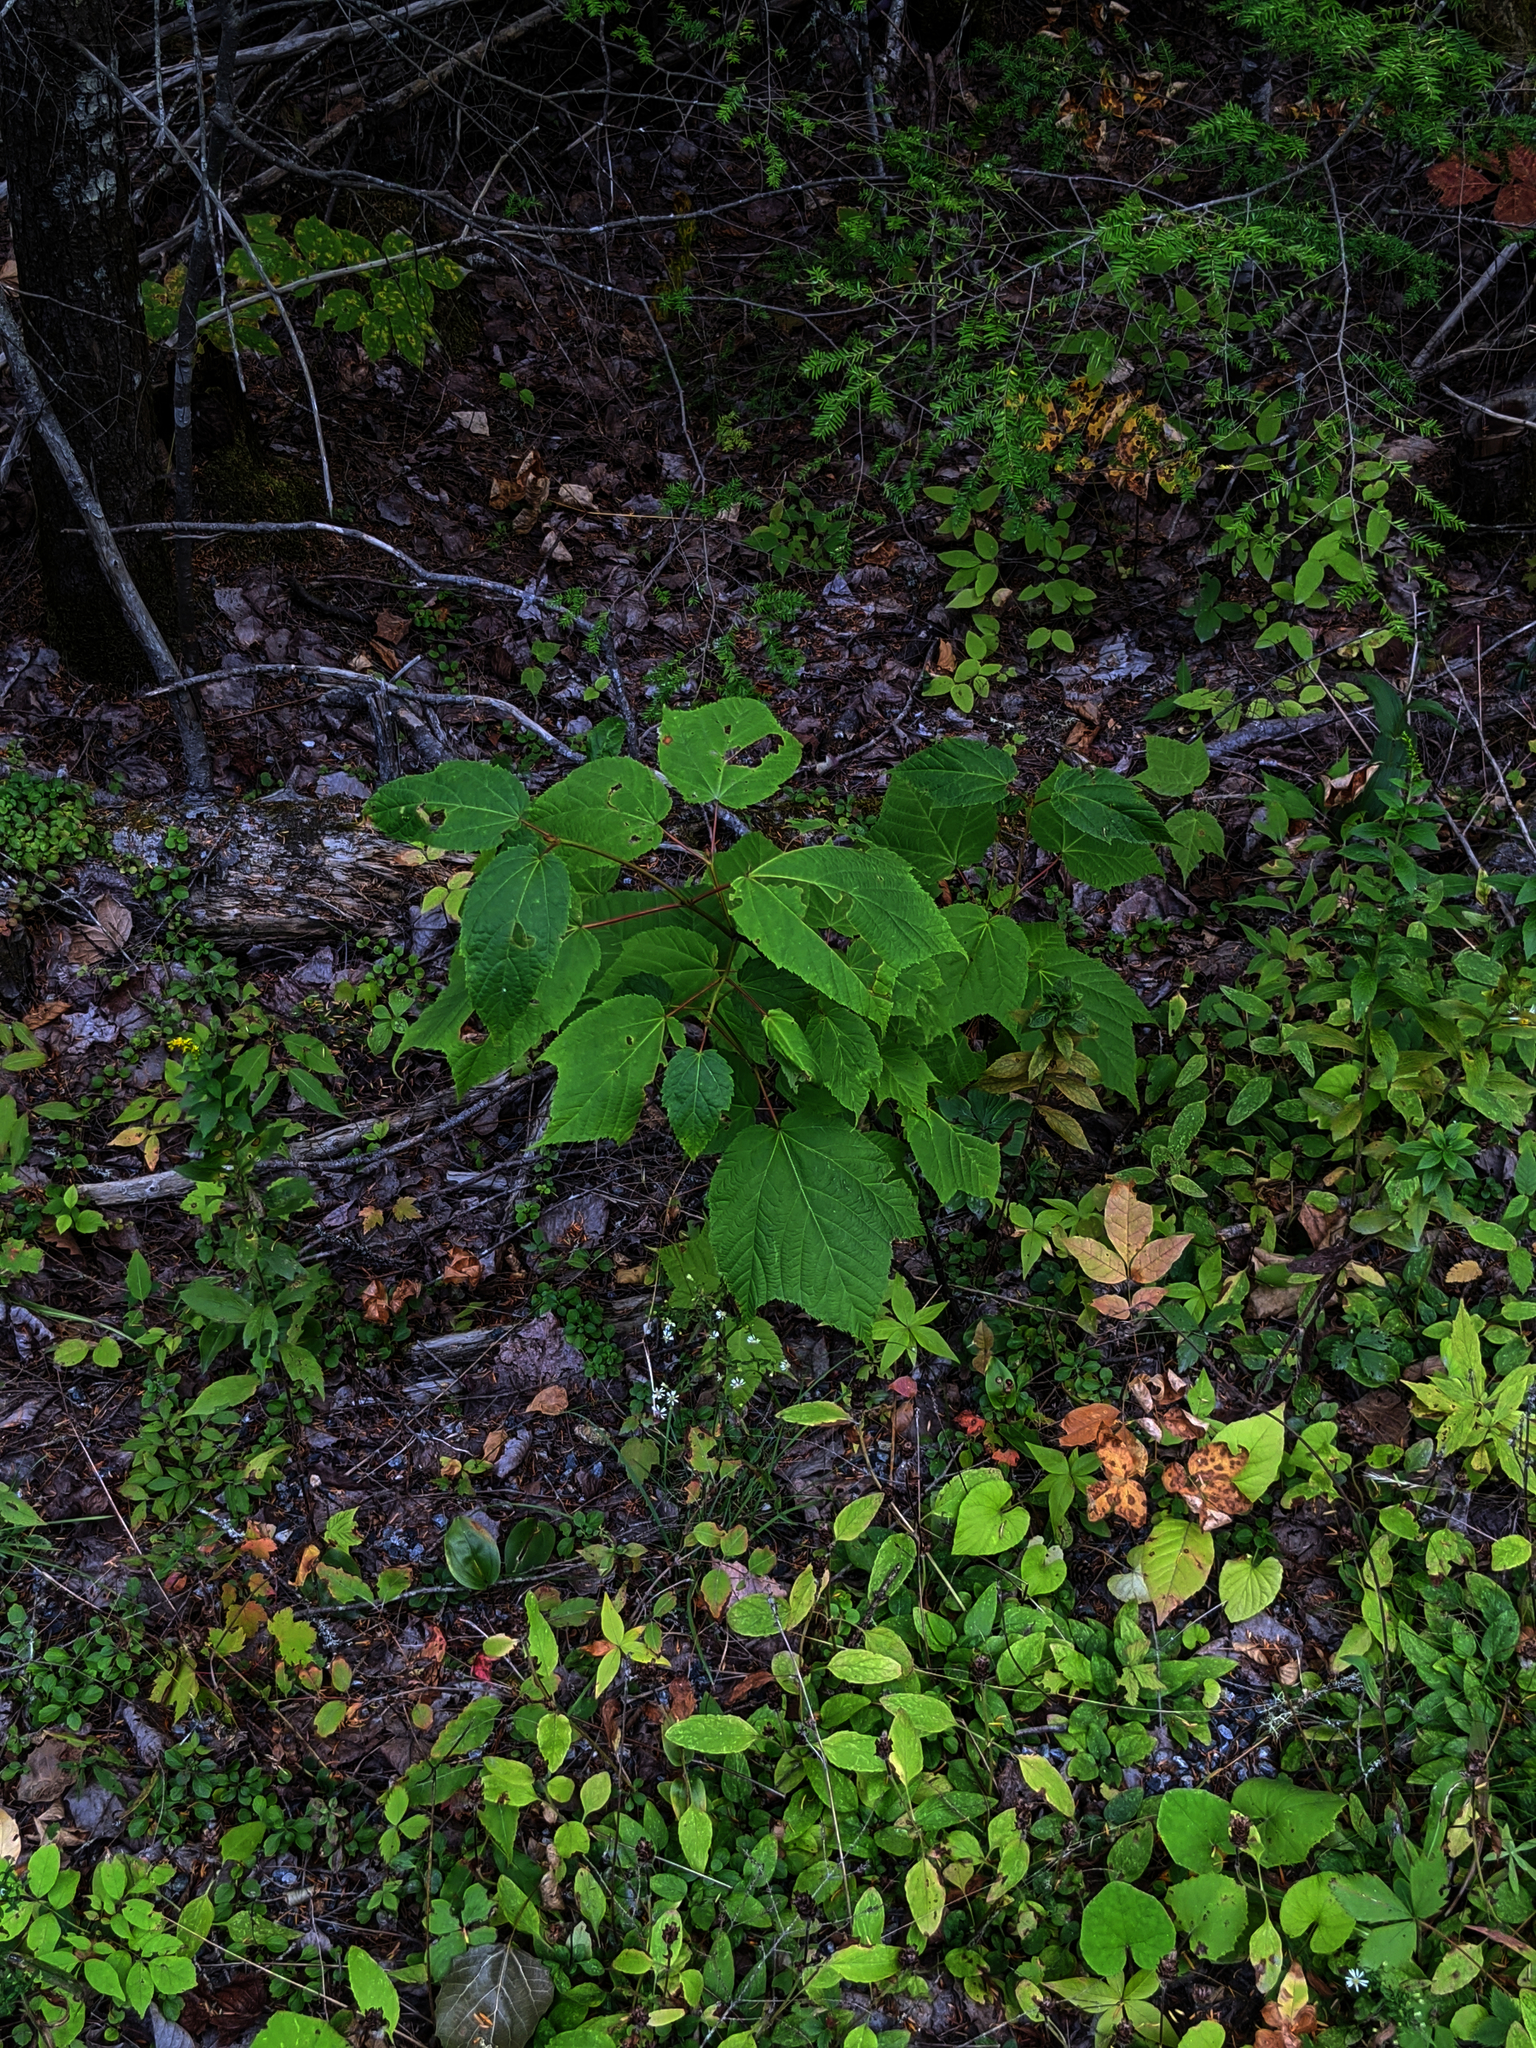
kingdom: Plantae
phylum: Tracheophyta
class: Magnoliopsida
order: Sapindales
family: Sapindaceae
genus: Acer
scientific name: Acer pensylvanicum
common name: Moosewood
